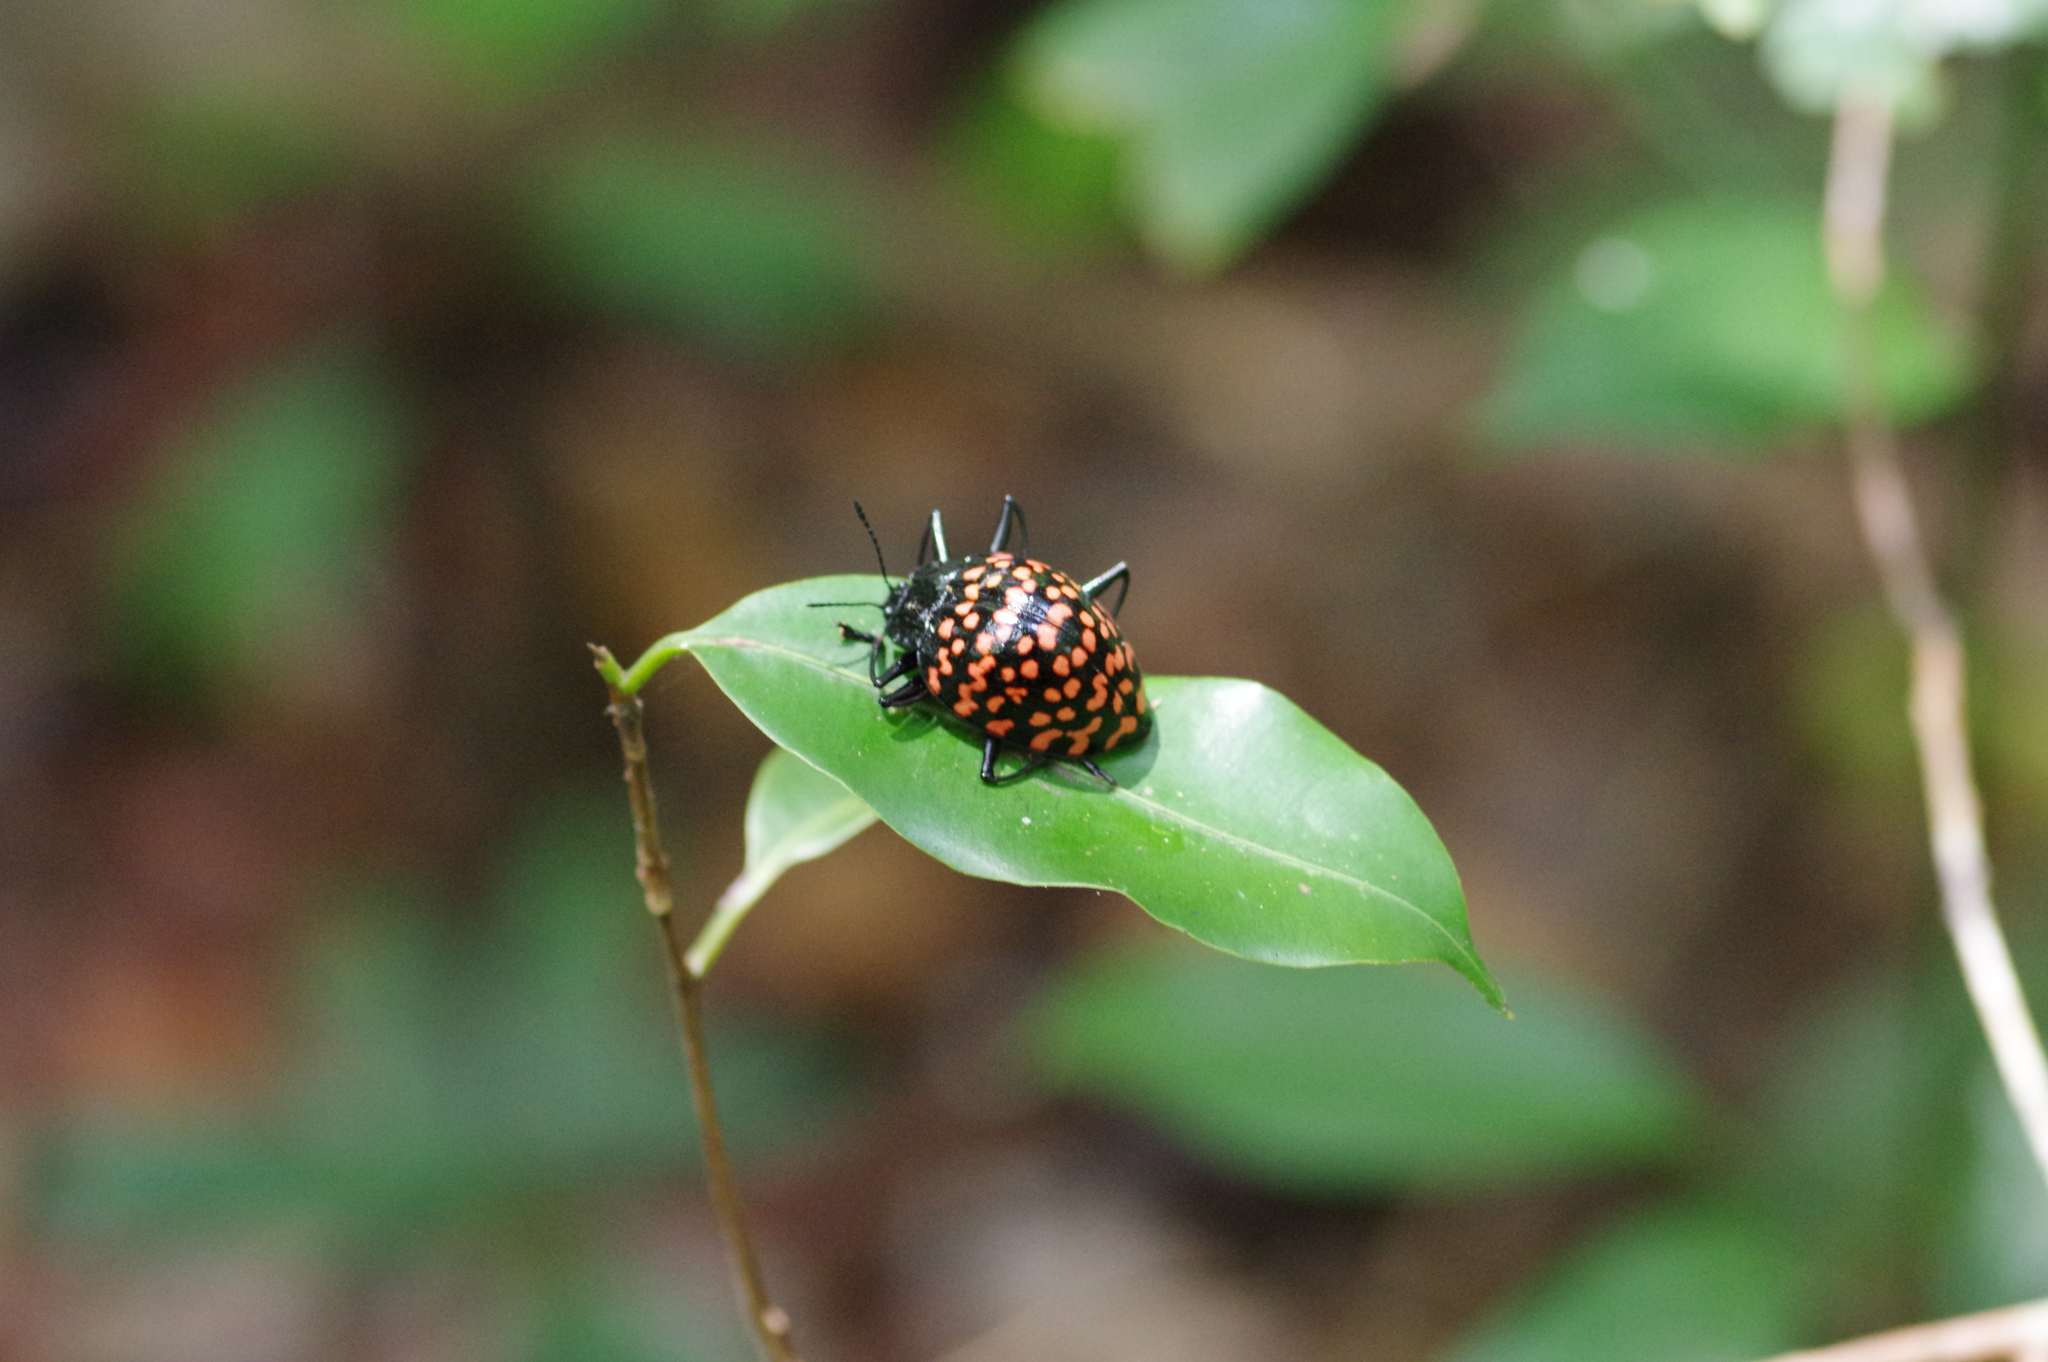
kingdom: Animalia
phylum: Arthropoda
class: Insecta
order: Coleoptera
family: Erotylidae
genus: Erotylus
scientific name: Erotylus giganteus
